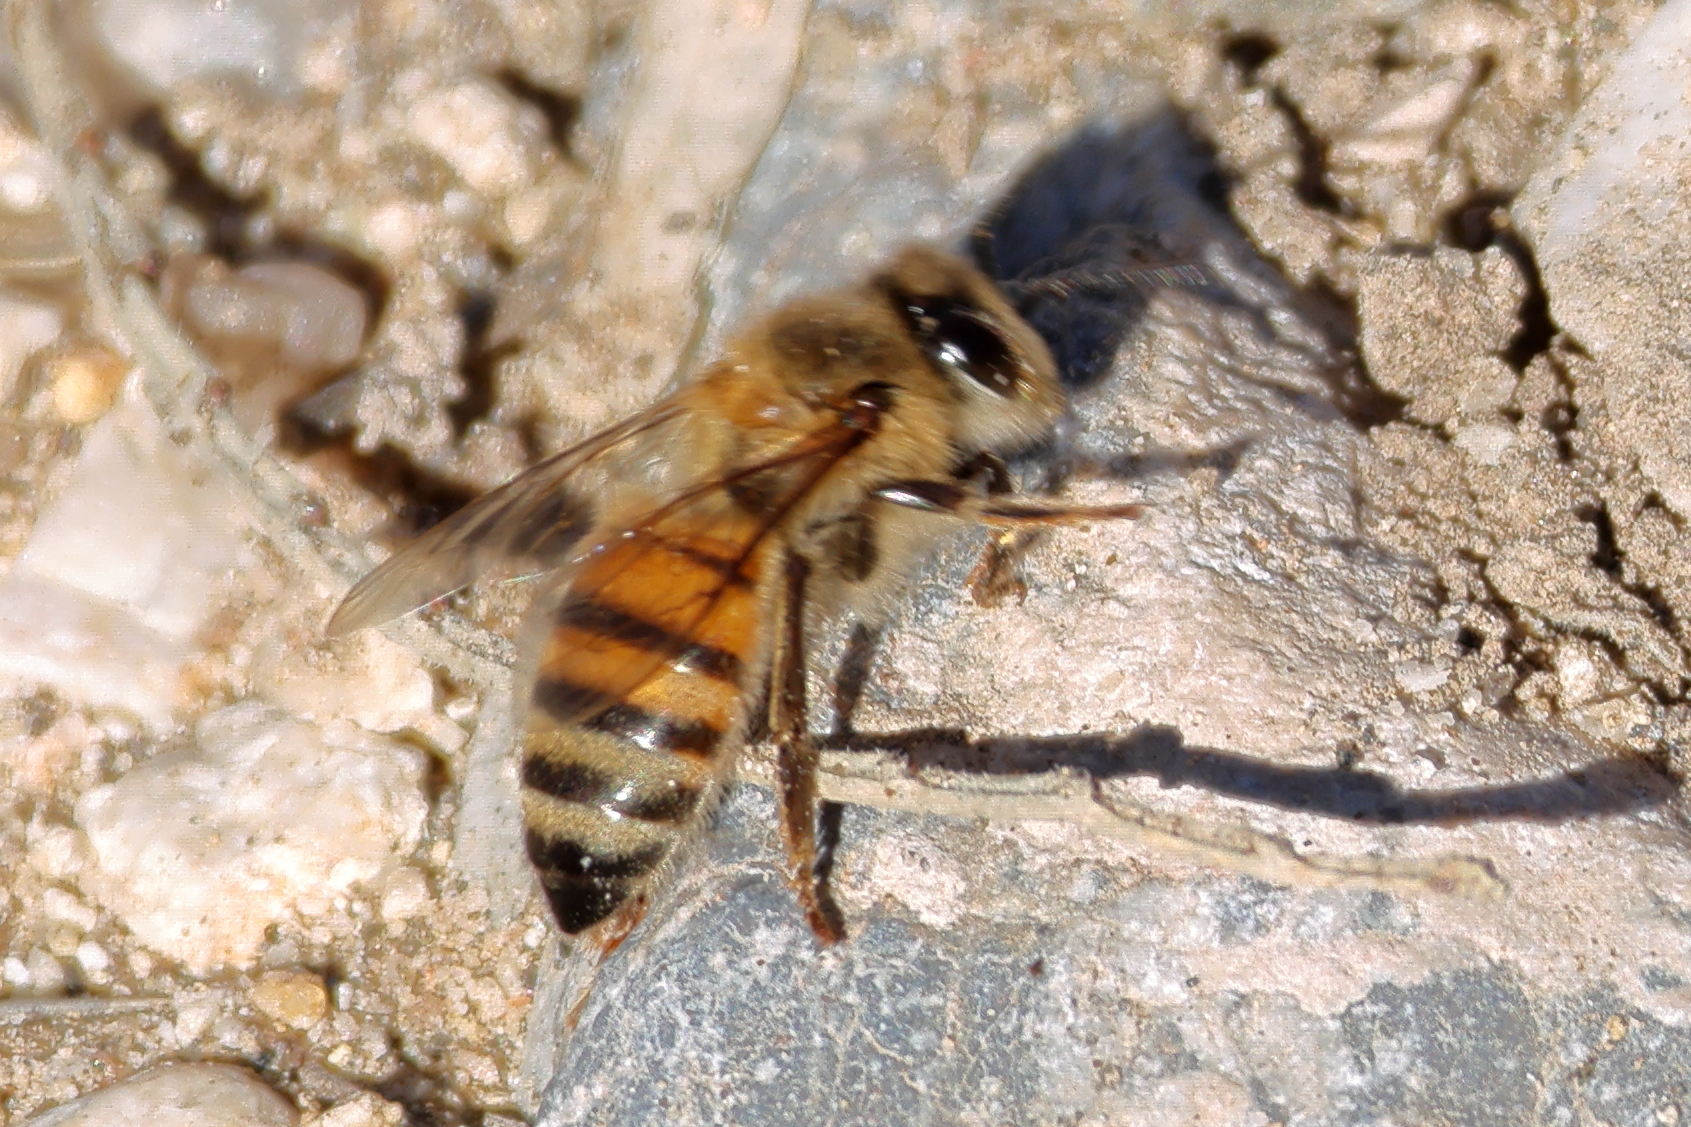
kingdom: Animalia
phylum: Arthropoda
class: Insecta
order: Hymenoptera
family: Apidae
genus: Apis
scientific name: Apis mellifera
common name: Honey bee
